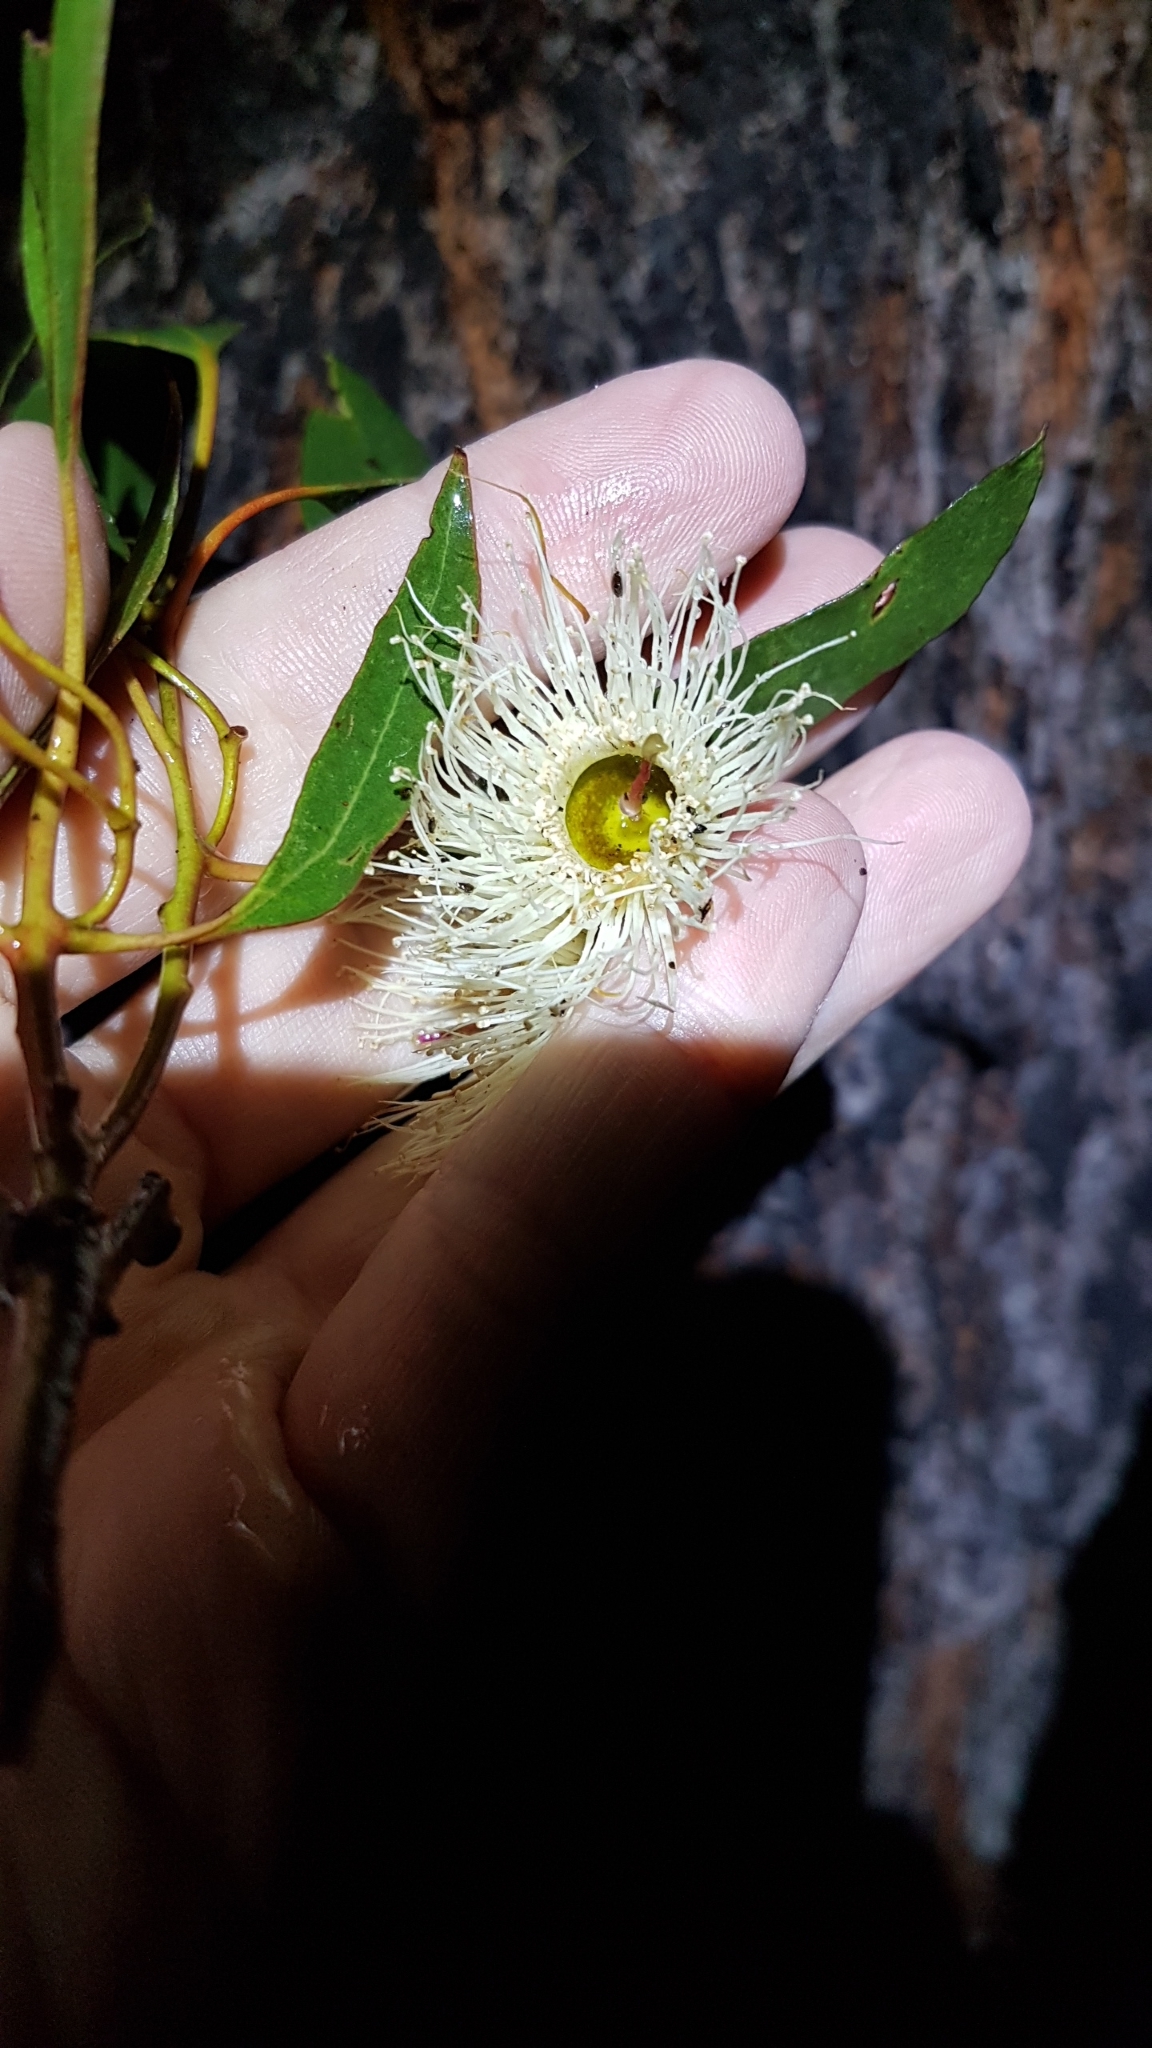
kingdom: Plantae
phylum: Tracheophyta
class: Magnoliopsida
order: Myrtales
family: Myrtaceae
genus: Eucalyptus
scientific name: Eucalyptus tricarpa
